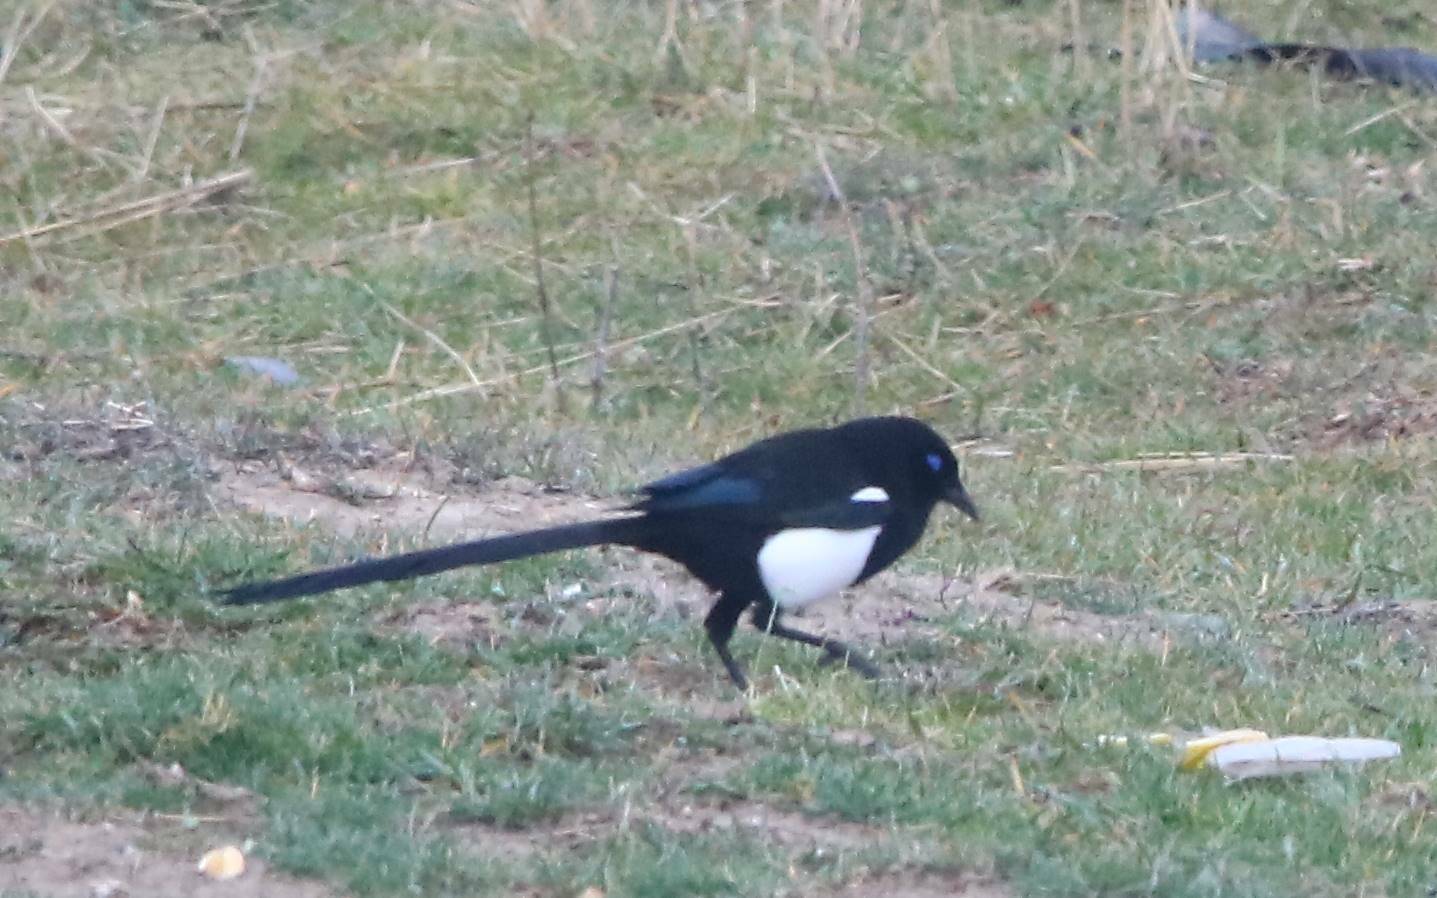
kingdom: Animalia
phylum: Chordata
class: Aves
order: Passeriformes
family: Corvidae
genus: Pica
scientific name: Pica mauritanica
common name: Maghreb magpie
